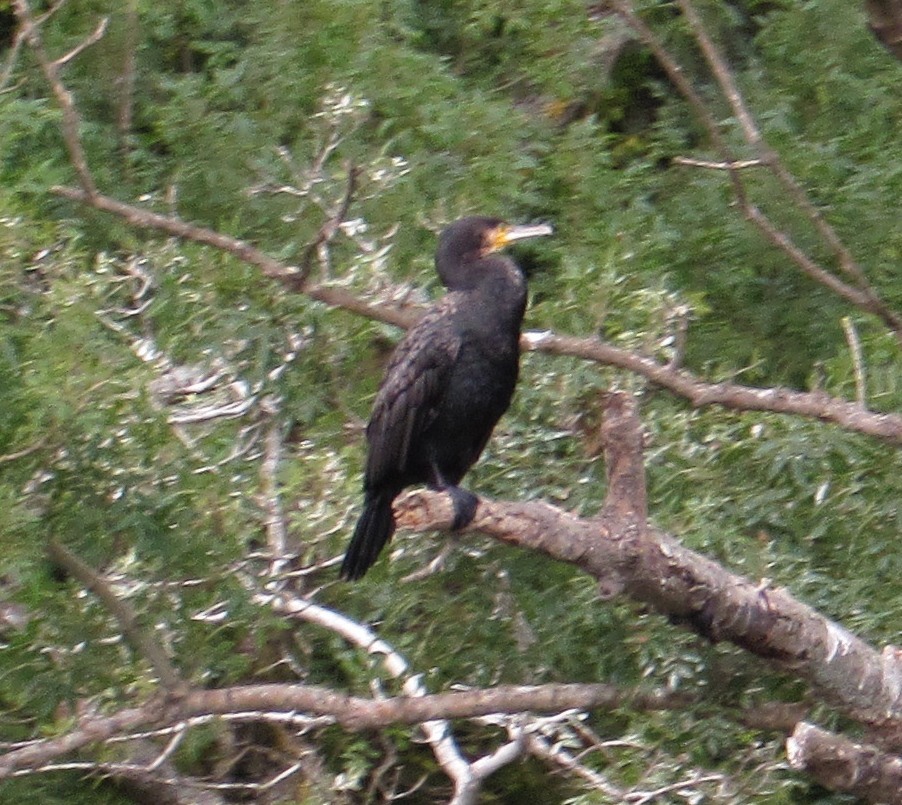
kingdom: Animalia
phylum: Chordata
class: Aves
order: Suliformes
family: Phalacrocoracidae
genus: Phalacrocorax
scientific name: Phalacrocorax carbo
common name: Great cormorant
